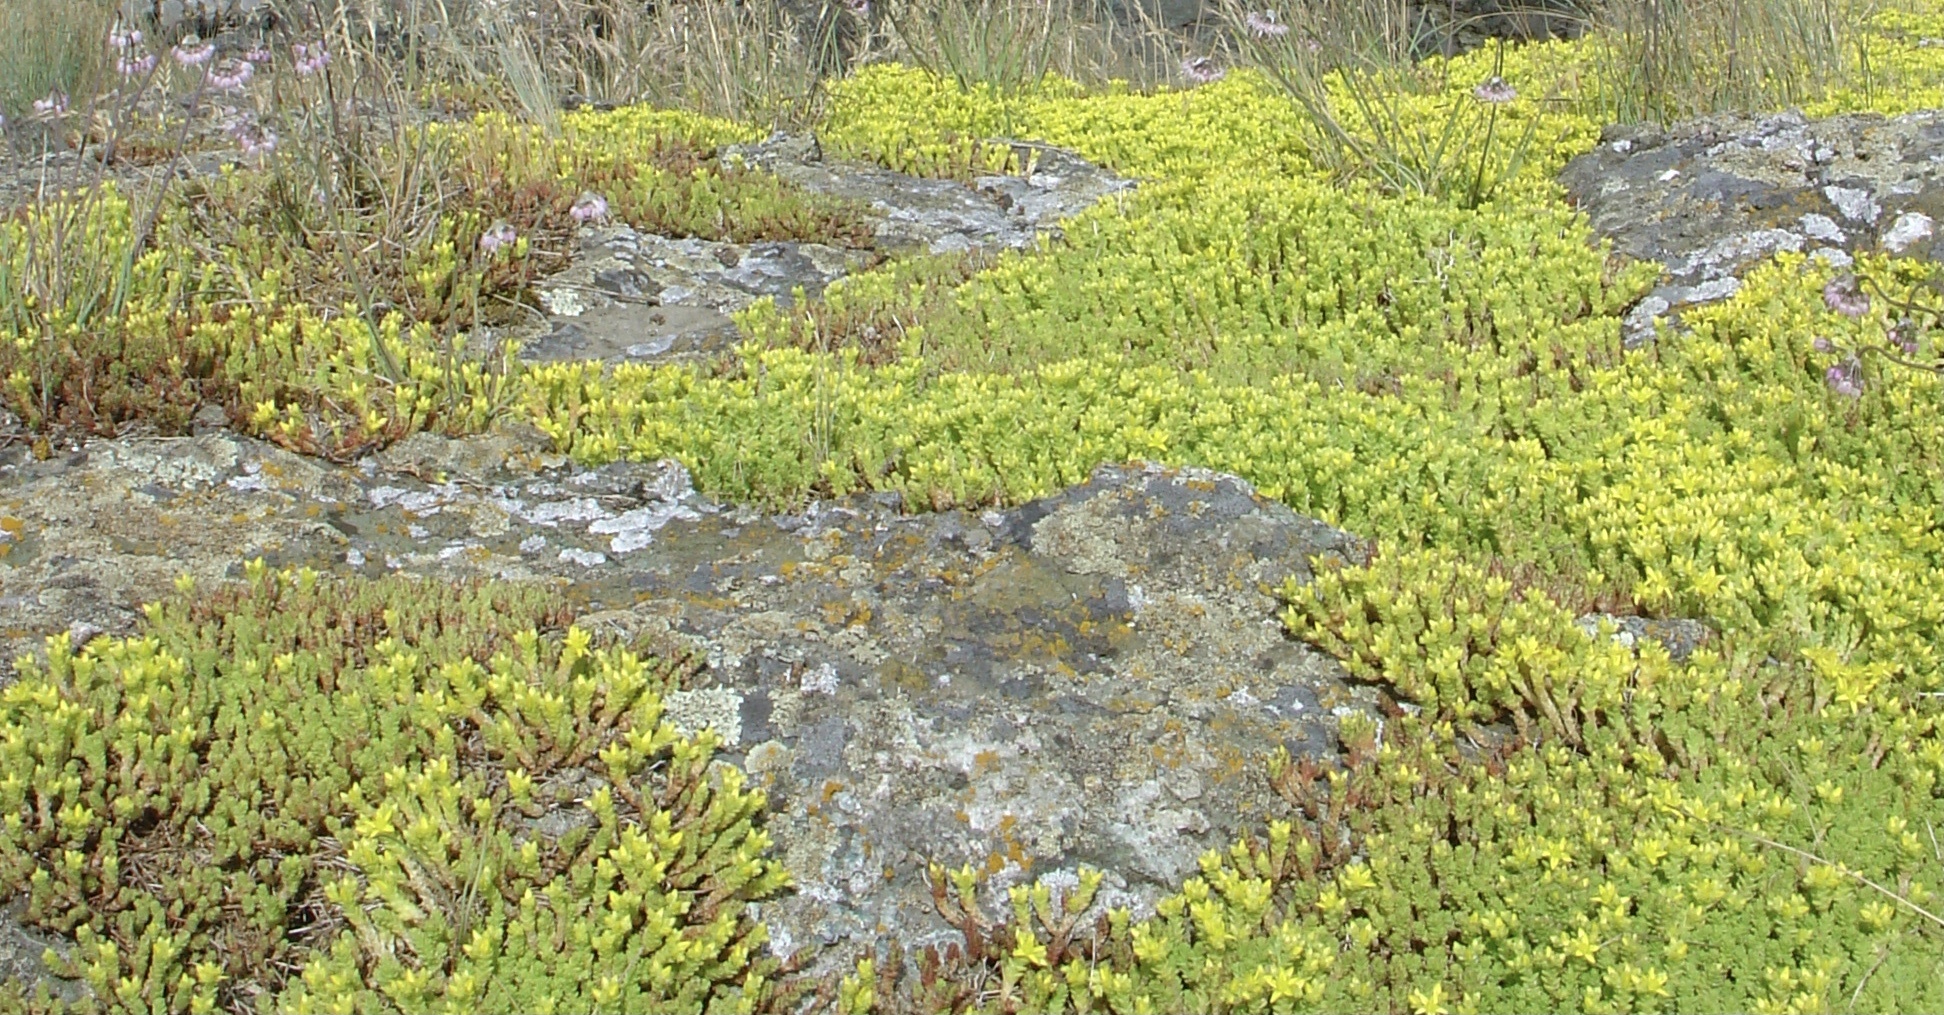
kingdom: Plantae
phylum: Tracheophyta
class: Magnoliopsida
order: Saxifragales
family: Crassulaceae
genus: Sedum
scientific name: Sedum acre
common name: Biting stonecrop
